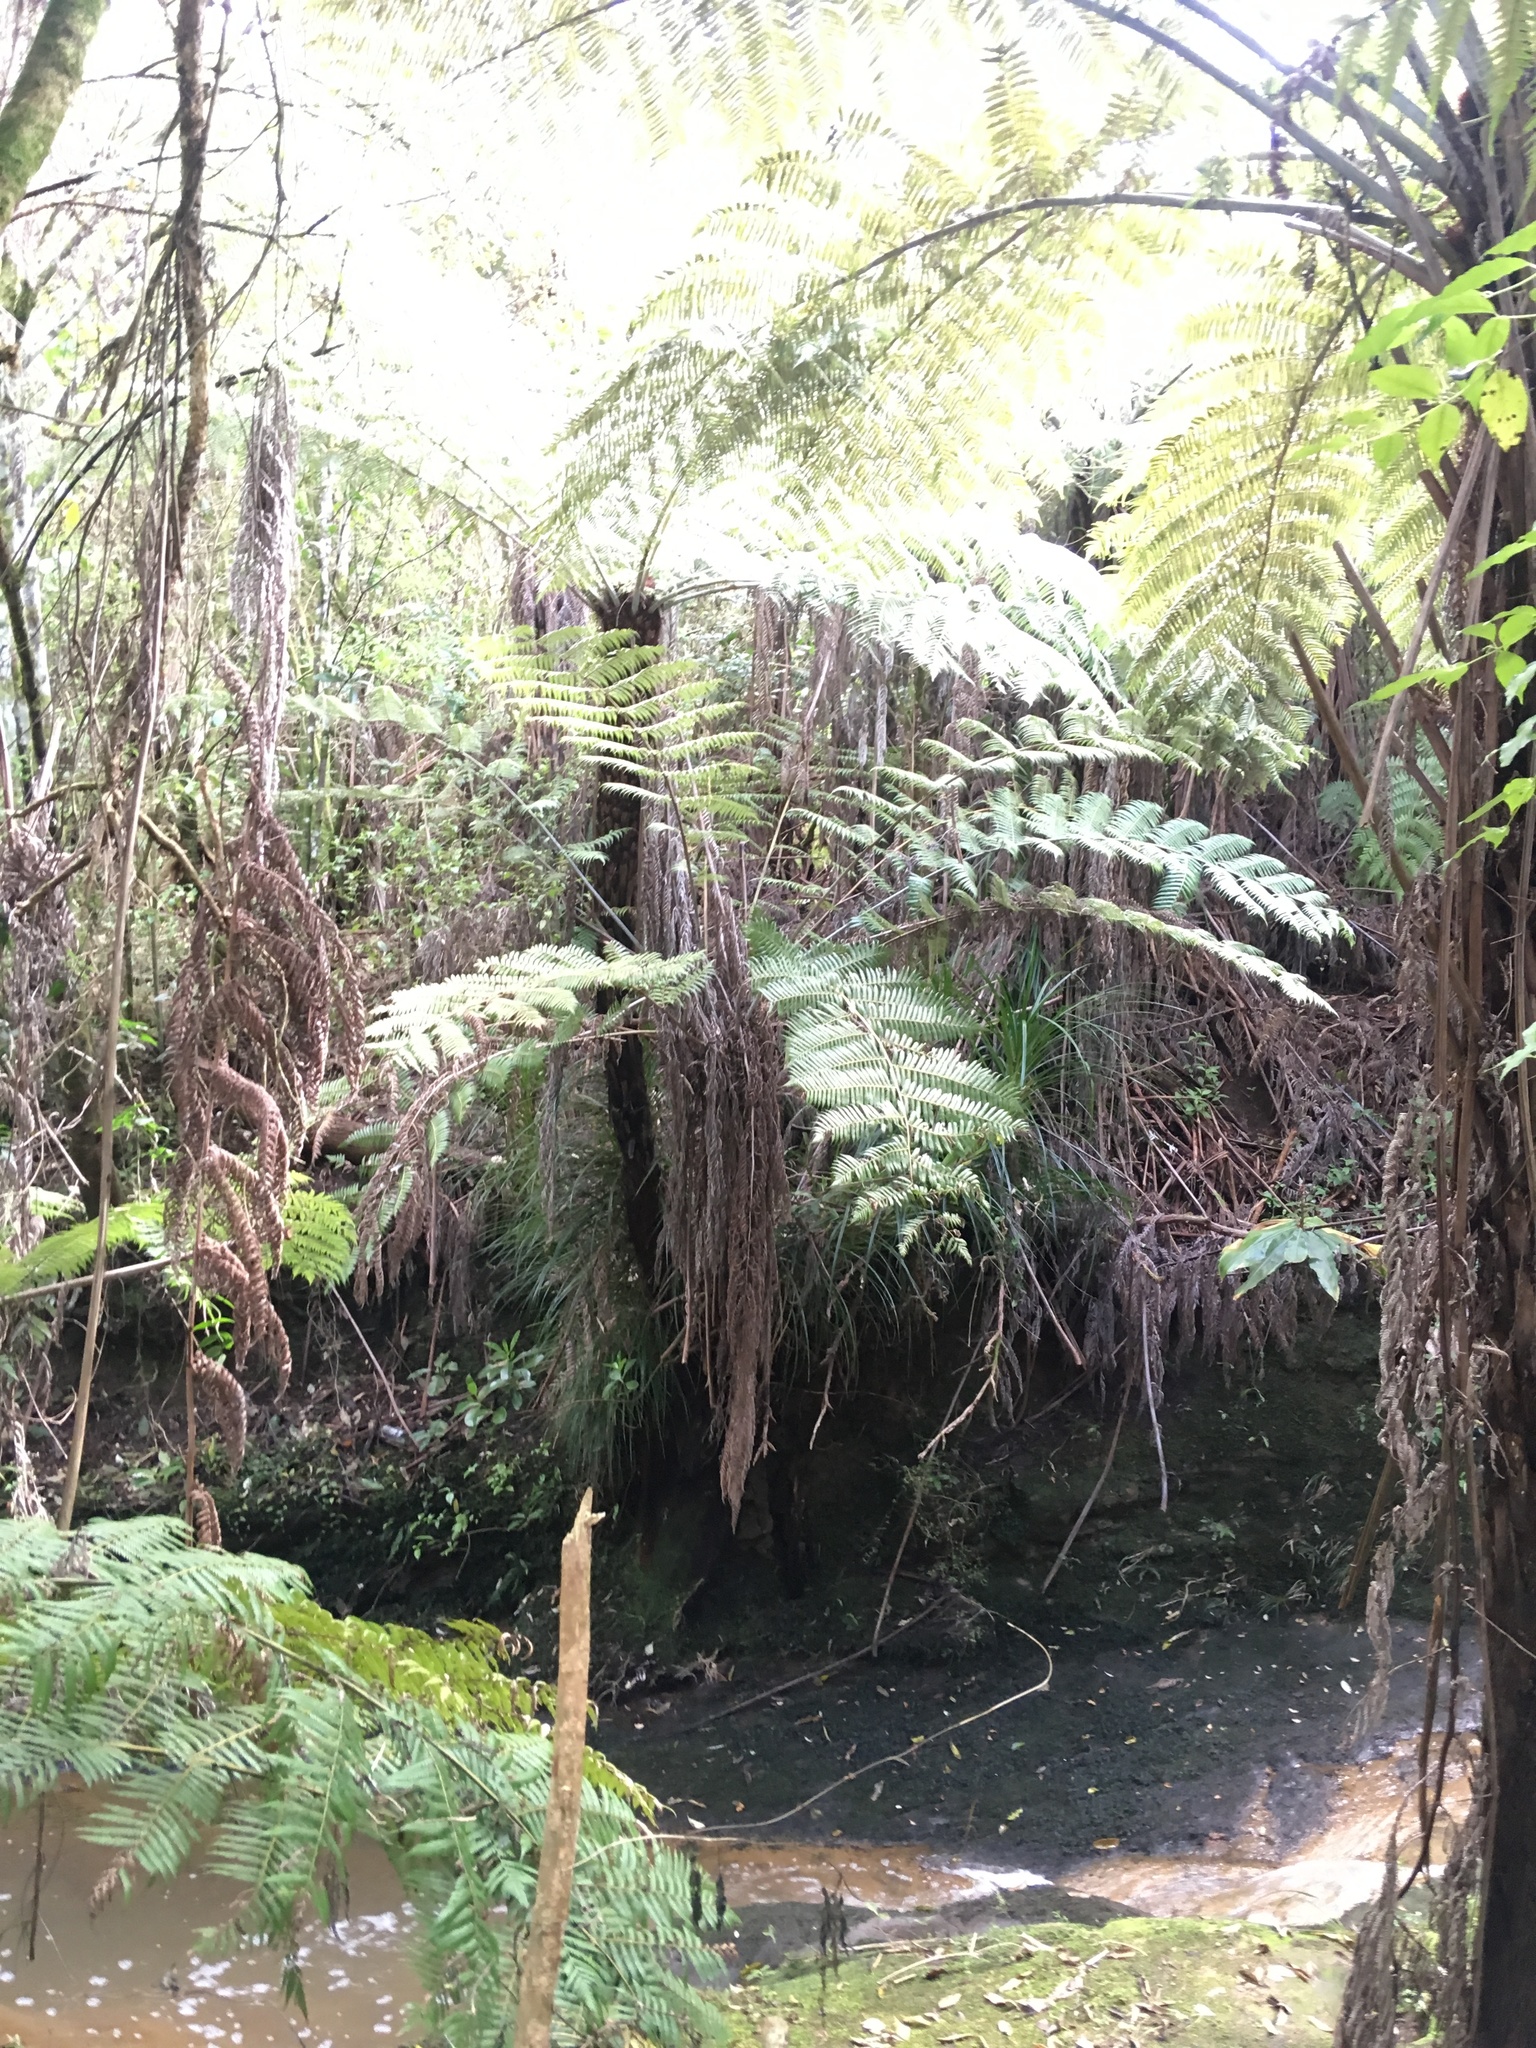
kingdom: Plantae
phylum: Tracheophyta
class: Polypodiopsida
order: Cyatheales
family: Cyatheaceae
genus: Alsophila
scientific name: Alsophila dealbata
